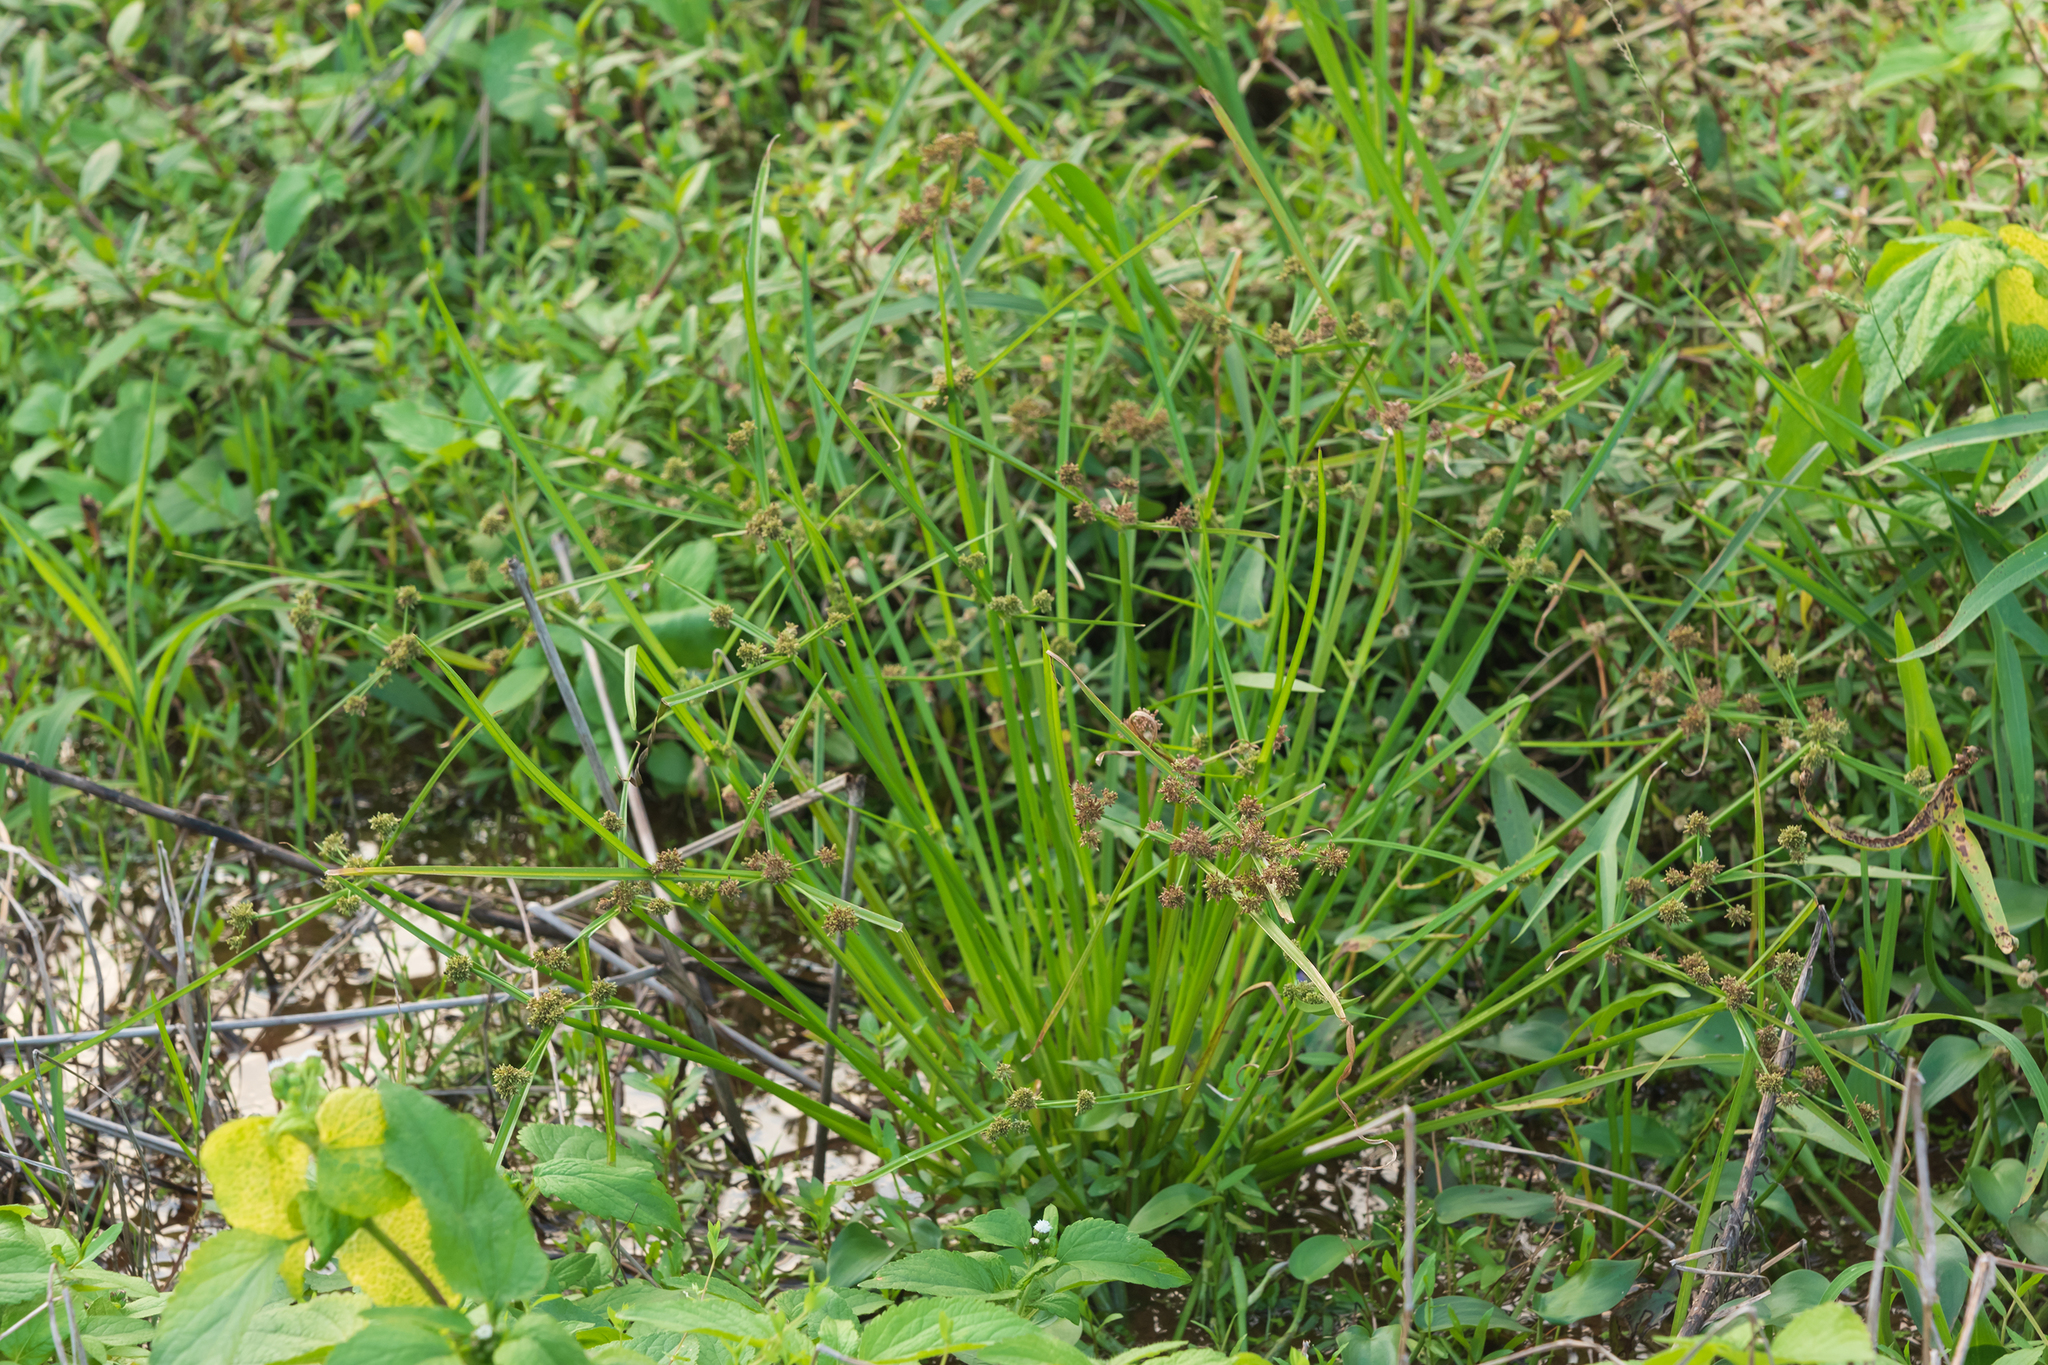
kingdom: Plantae
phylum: Tracheophyta
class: Liliopsida
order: Poales
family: Cyperaceae
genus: Cyperus
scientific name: Cyperus difformis
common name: Variable flatsedge
